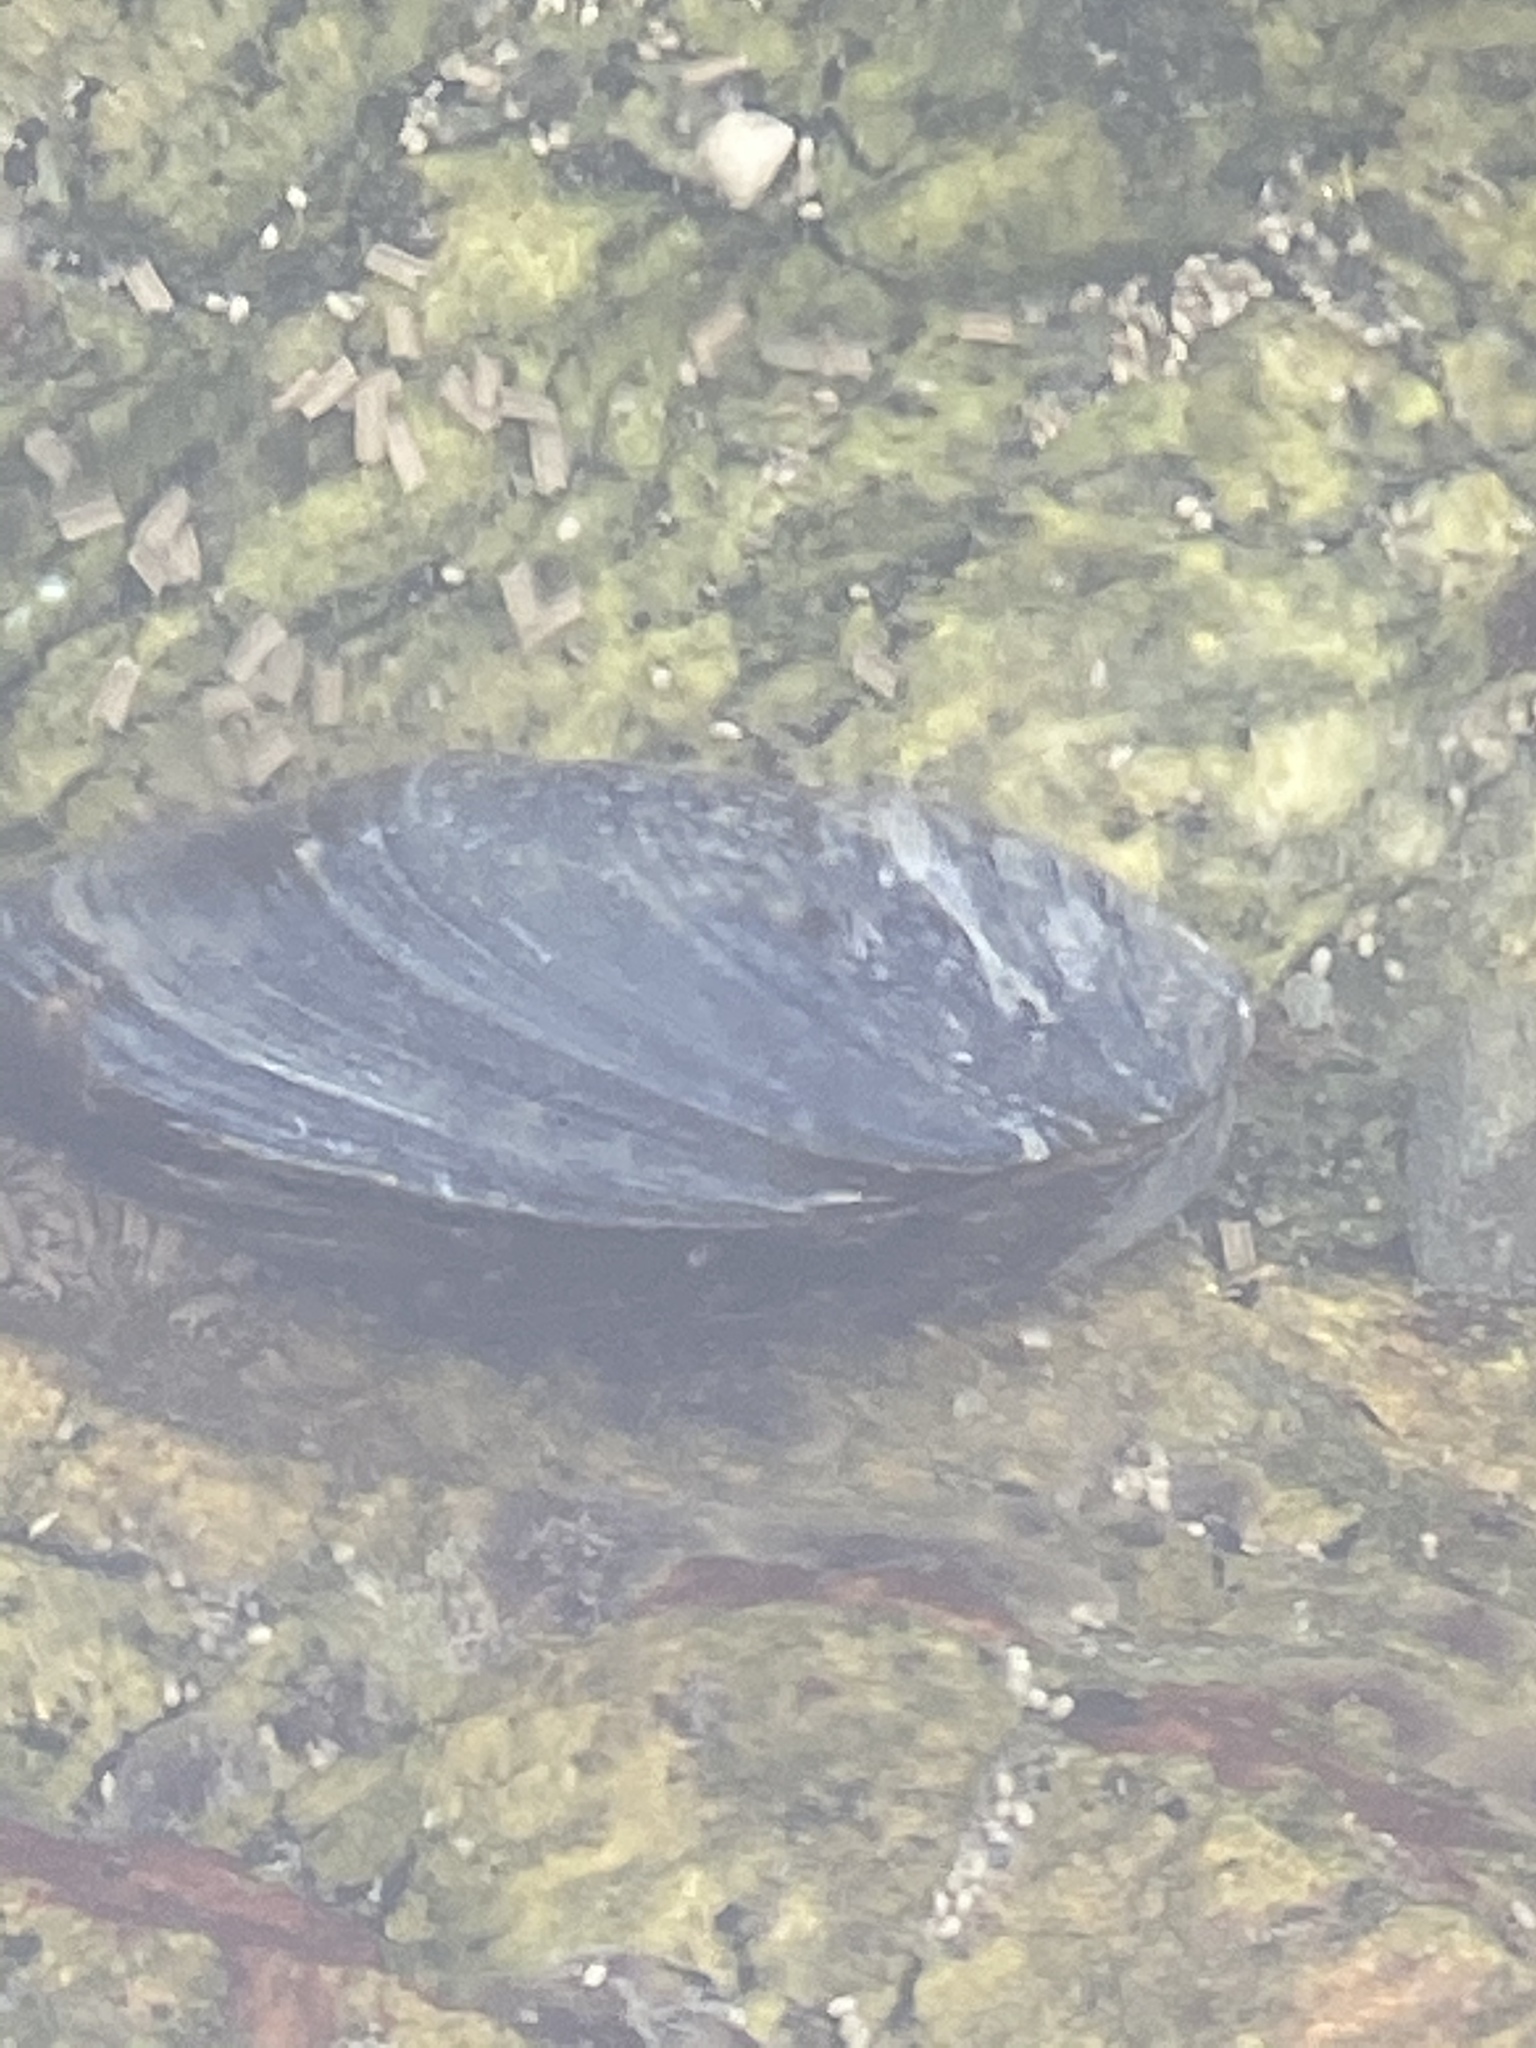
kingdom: Animalia
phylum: Mollusca
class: Bivalvia
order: Mytilida
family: Mytilidae
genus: Mytilus
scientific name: Mytilus edulis
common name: Blue mussel
